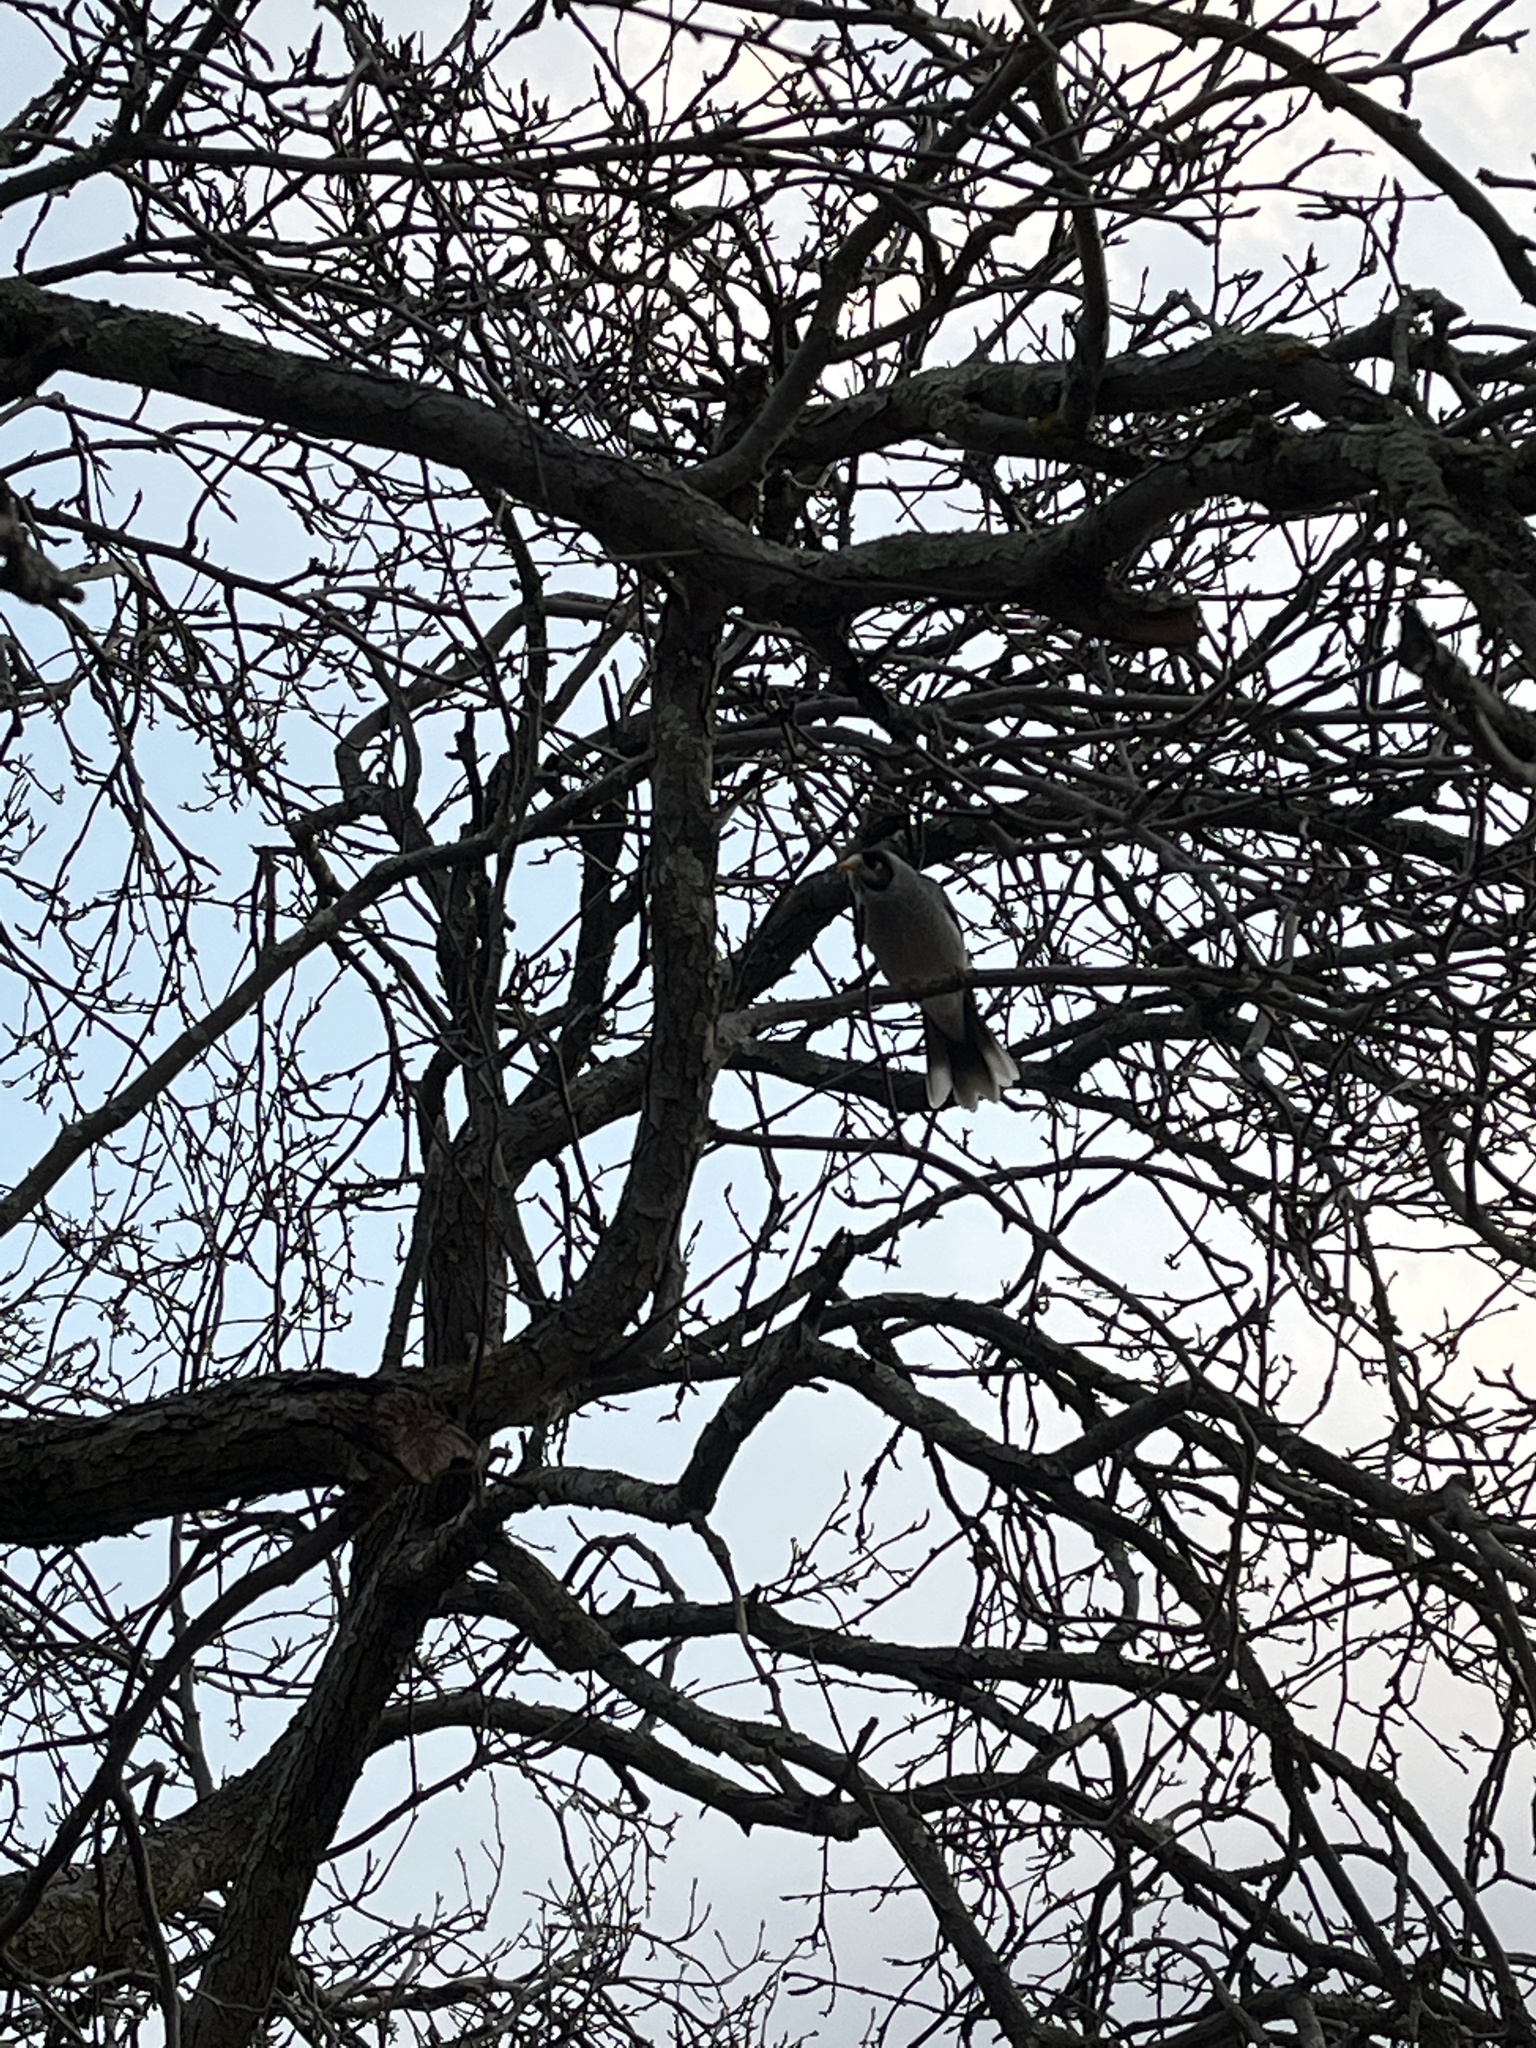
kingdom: Animalia
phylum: Chordata
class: Aves
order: Passeriformes
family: Meliphagidae
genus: Manorina
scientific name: Manorina melanocephala
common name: Noisy miner
